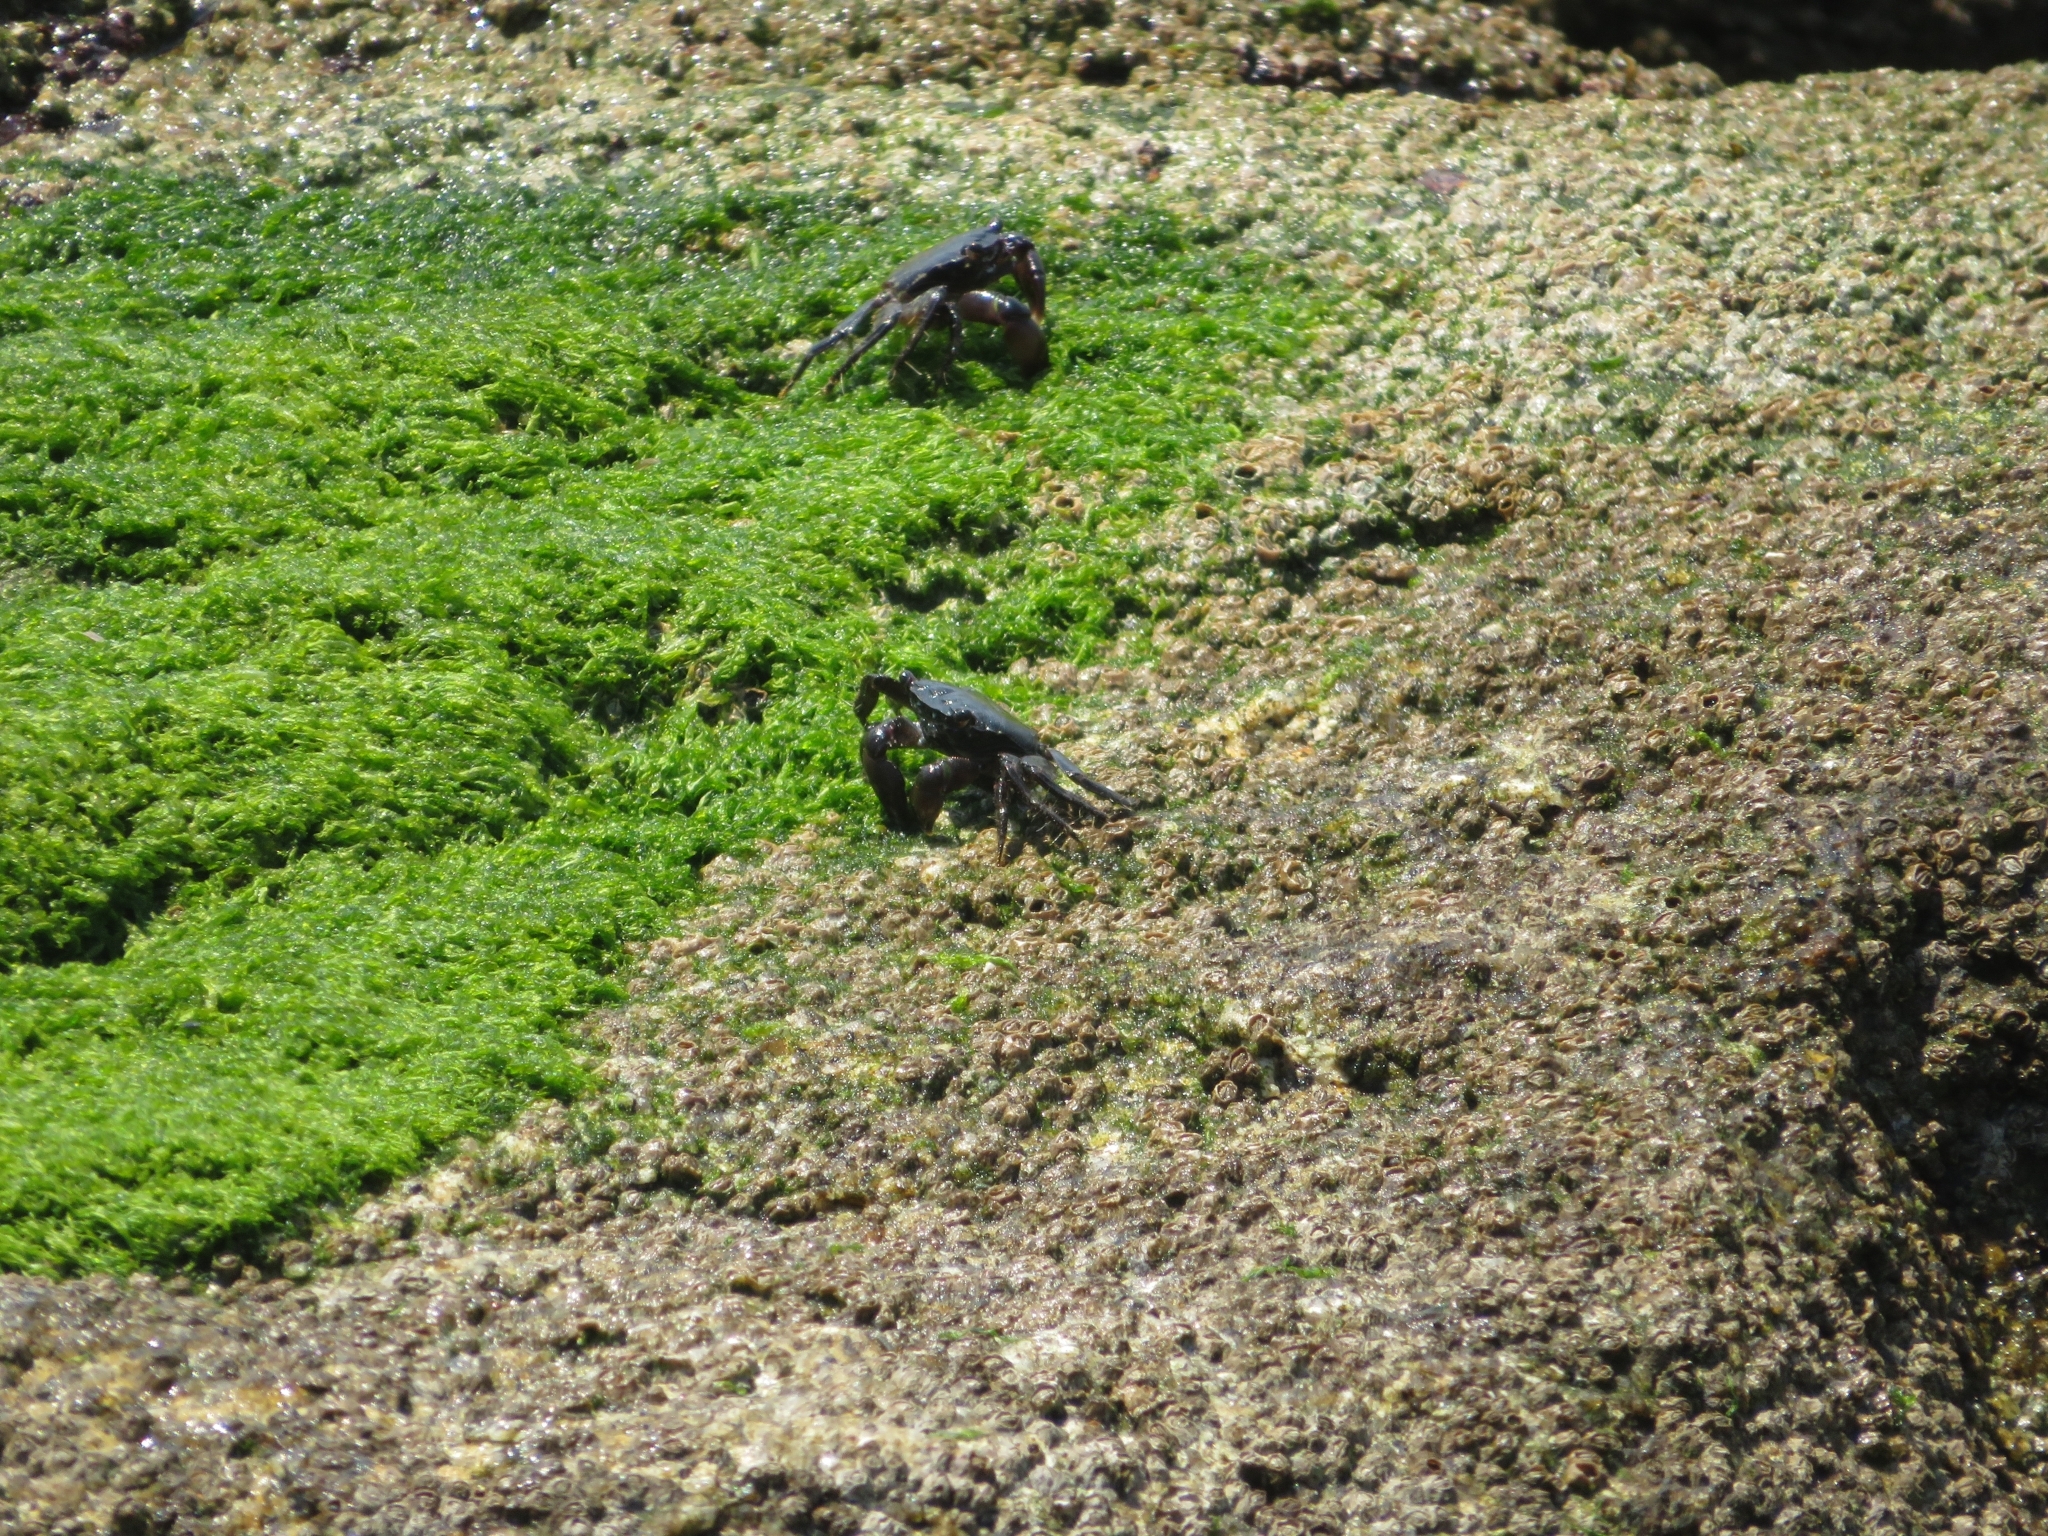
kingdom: Animalia
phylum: Arthropoda
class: Malacostraca
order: Decapoda
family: Grapsidae
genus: Pachygrapsus
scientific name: Pachygrapsus marmoratus
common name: Marbled rock crab
